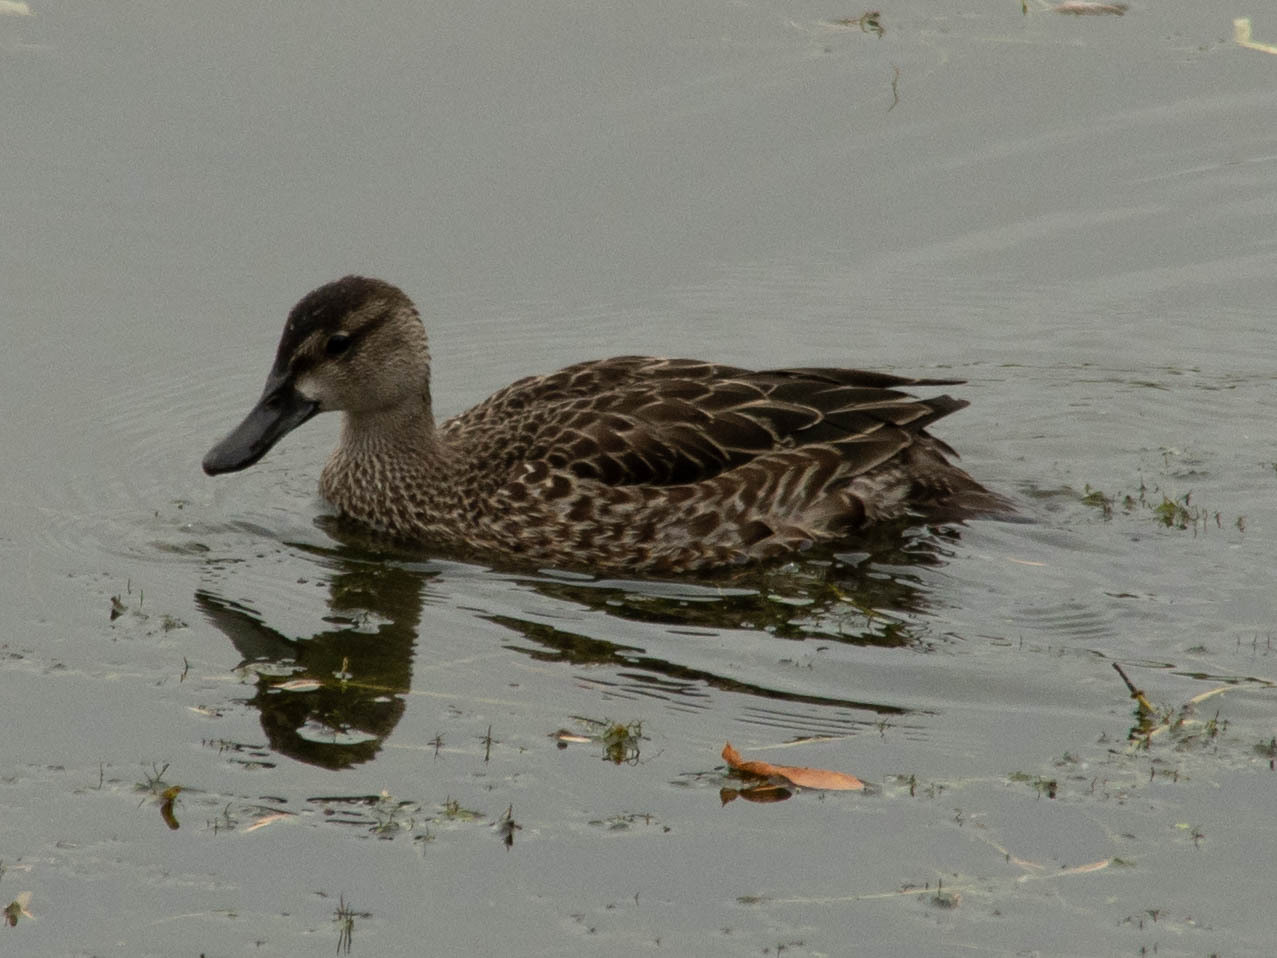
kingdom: Animalia
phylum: Chordata
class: Aves
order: Anseriformes
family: Anatidae
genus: Spatula
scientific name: Spatula discors
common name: Blue-winged teal
